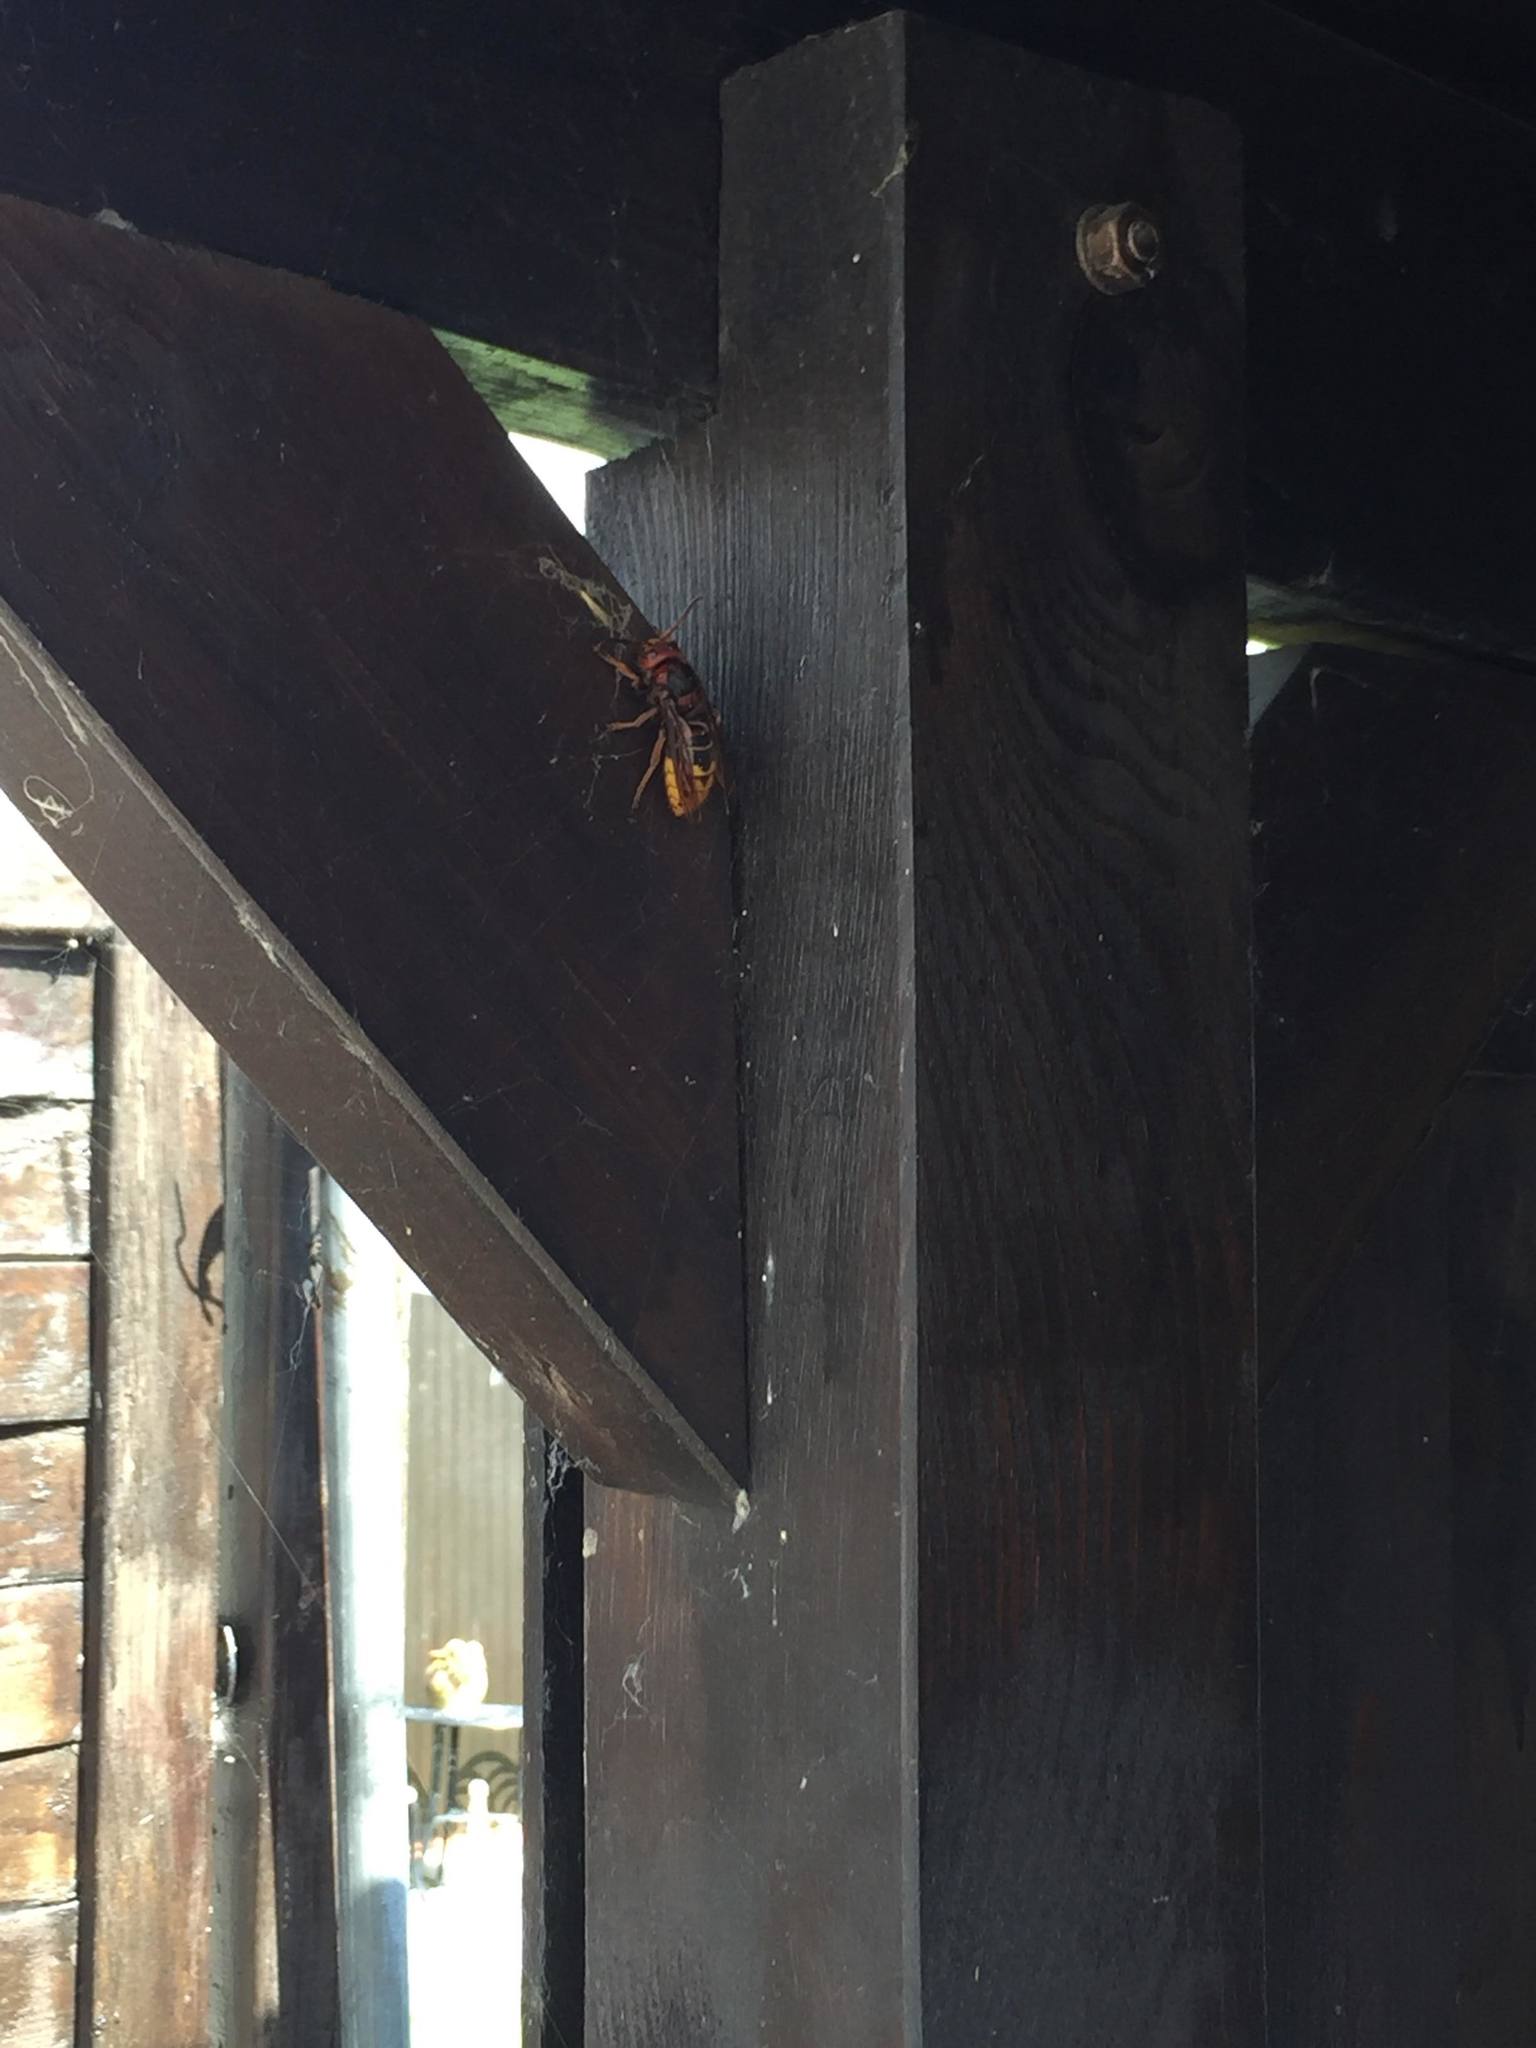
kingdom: Animalia
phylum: Arthropoda
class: Insecta
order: Hymenoptera
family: Vespidae
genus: Vespa
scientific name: Vespa crabro
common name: Hornet
